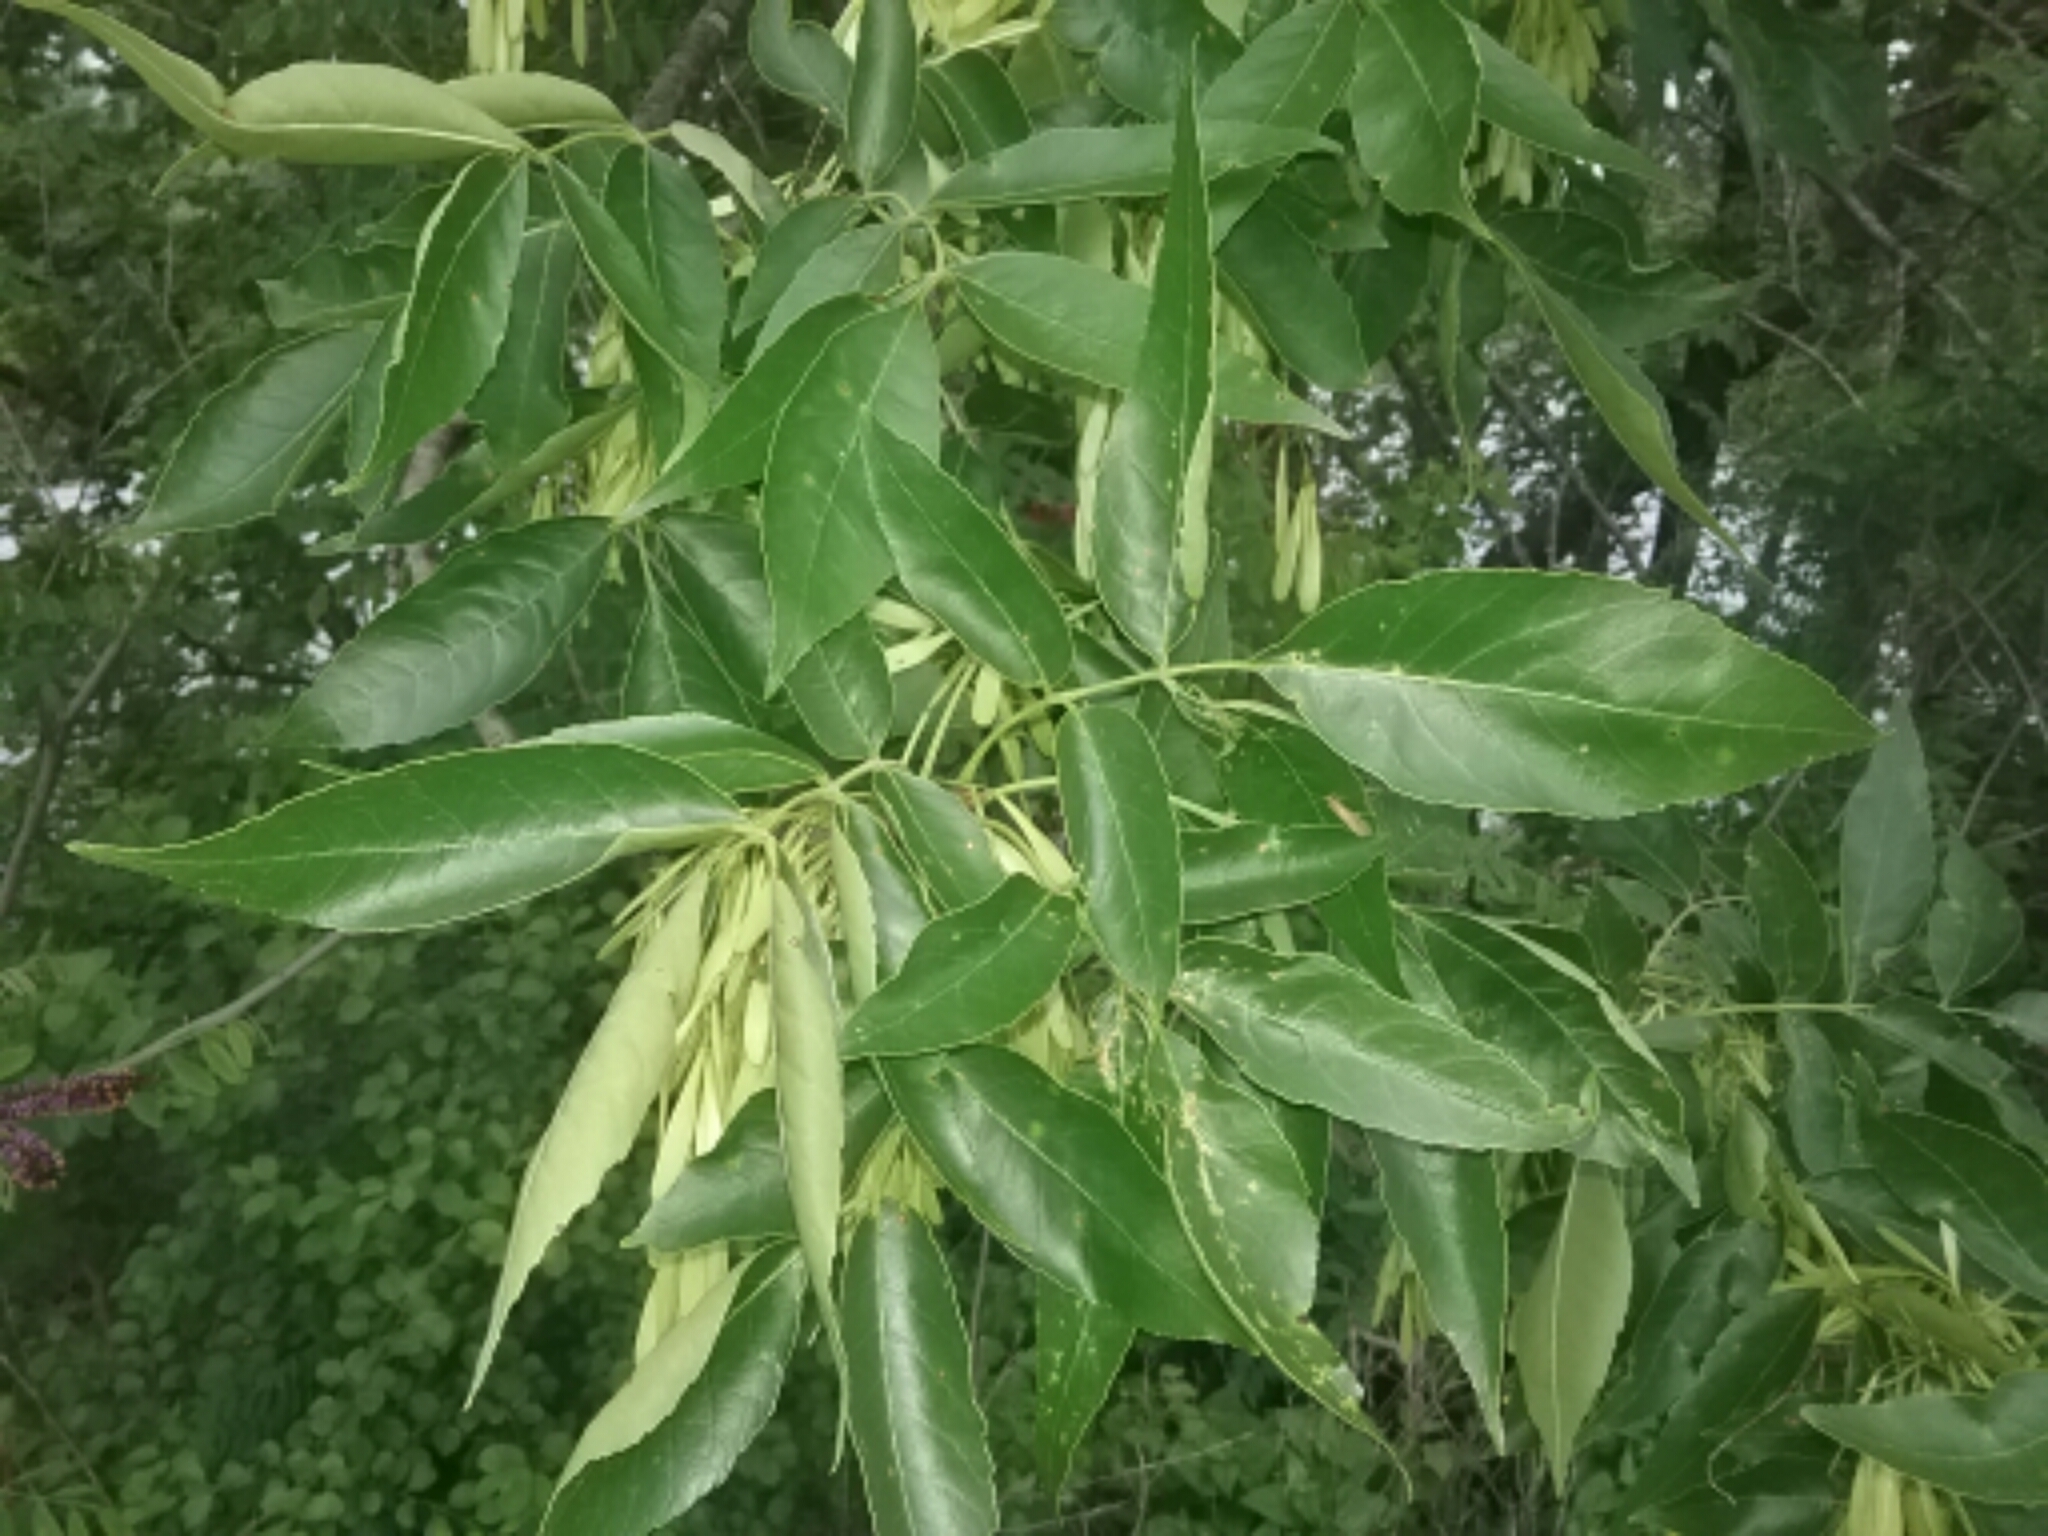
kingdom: Plantae
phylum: Tracheophyta
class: Magnoliopsida
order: Lamiales
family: Oleaceae
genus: Fraxinus
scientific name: Fraxinus pennsylvanica
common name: Green ash
